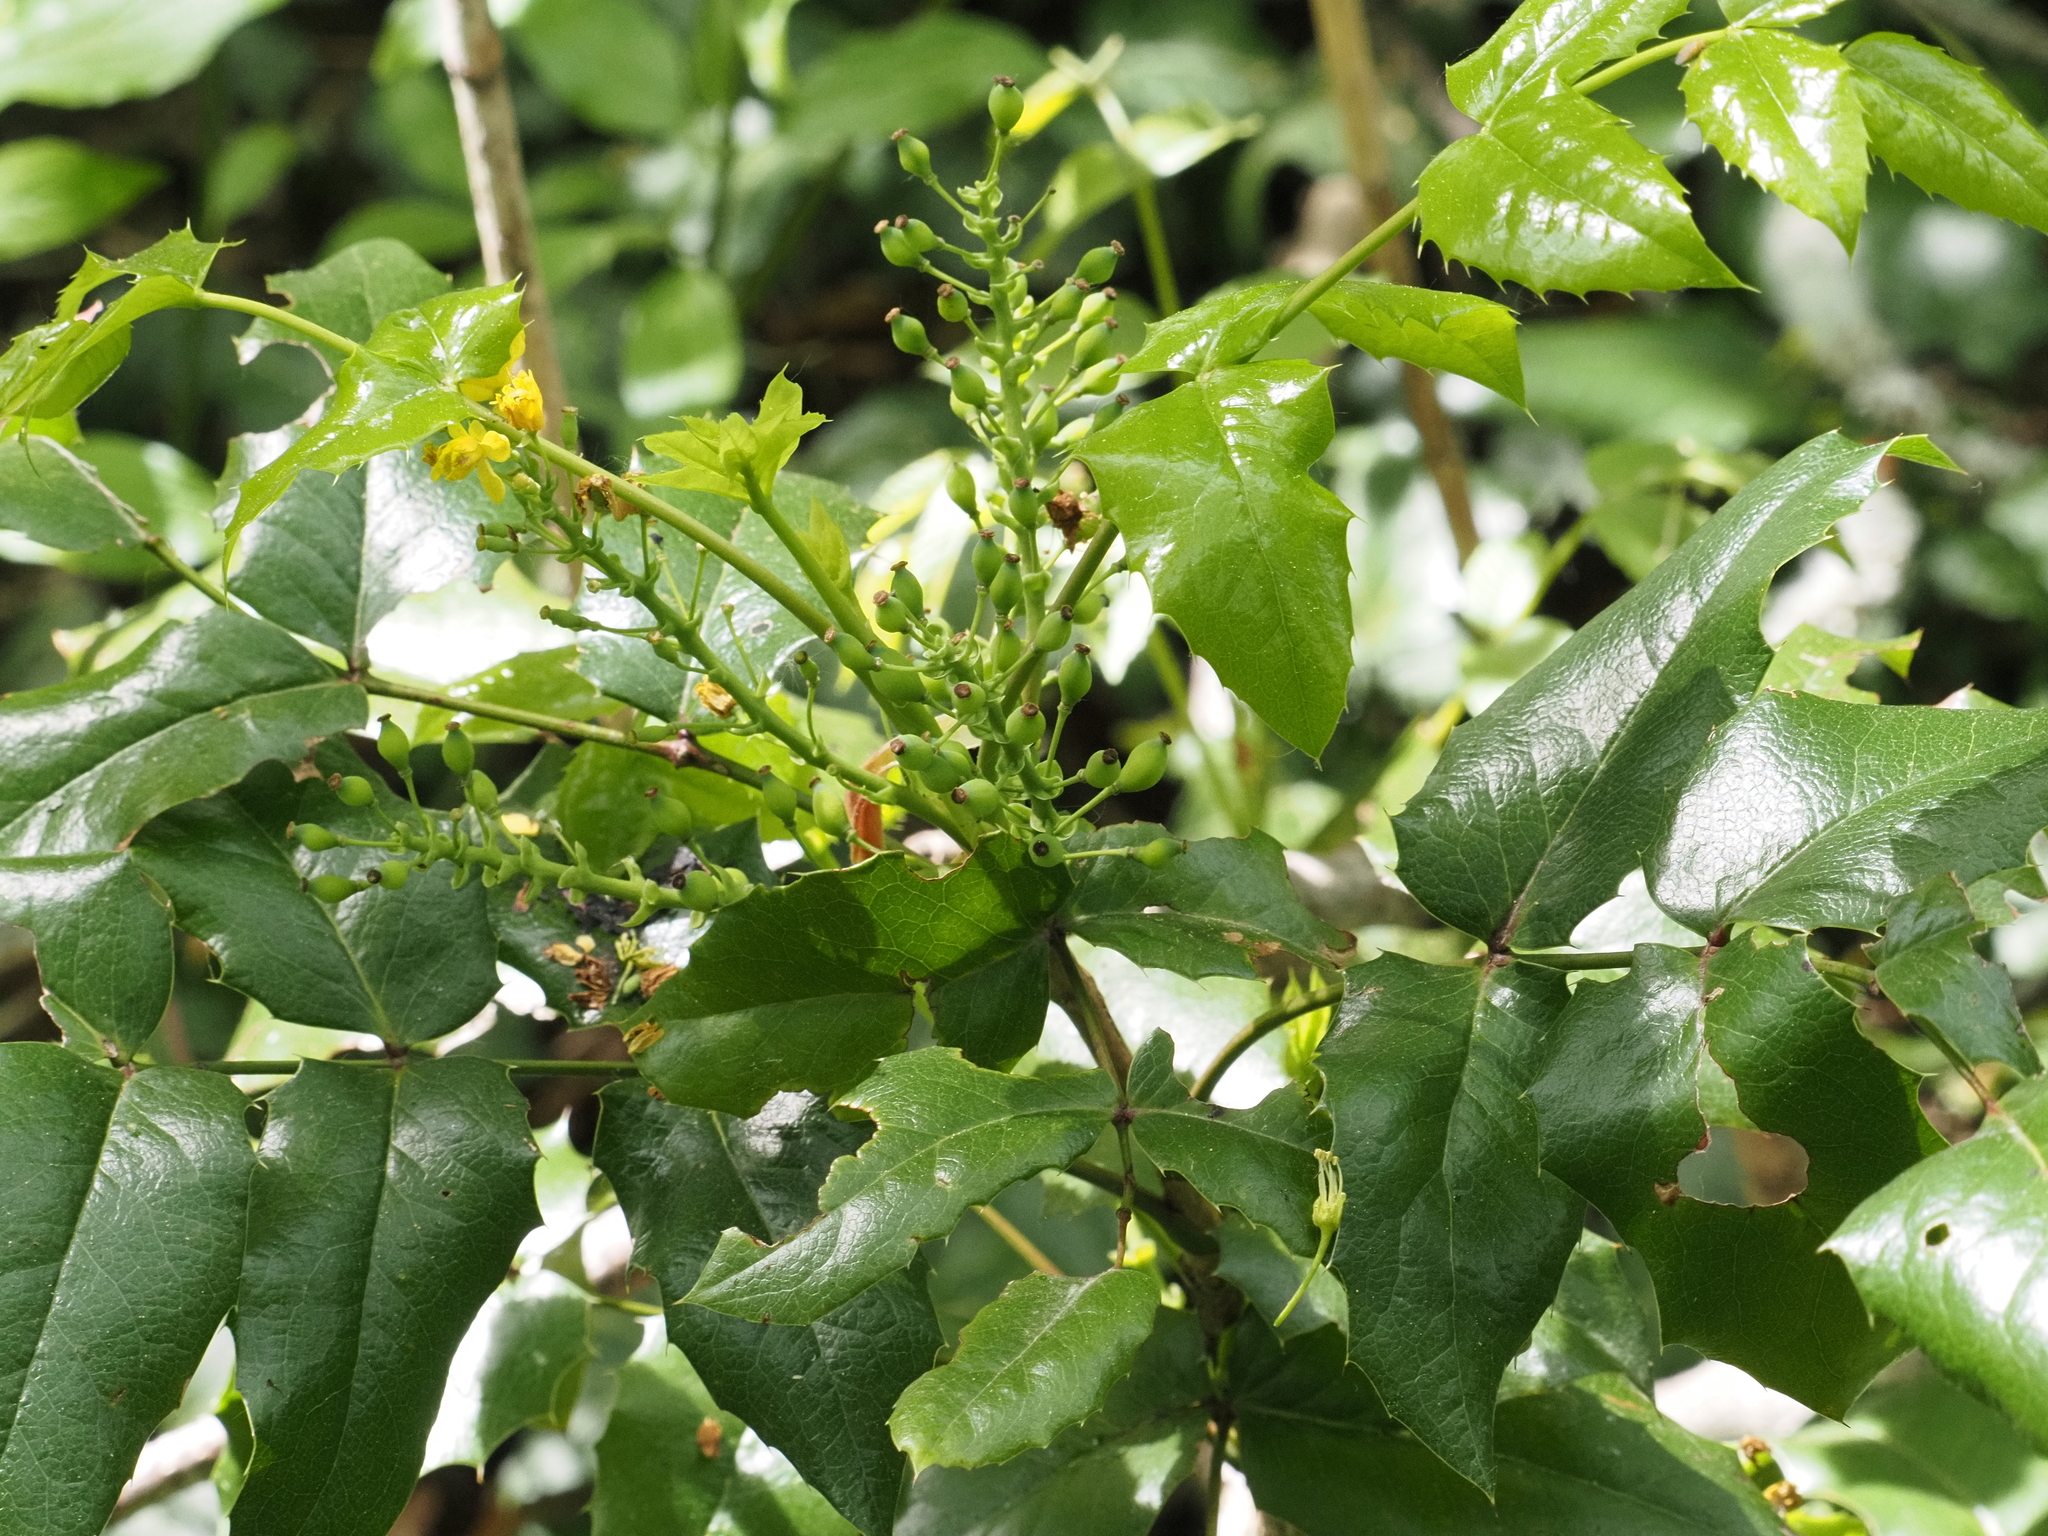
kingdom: Plantae
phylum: Tracheophyta
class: Magnoliopsida
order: Ranunculales
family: Berberidaceae
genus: Mahonia
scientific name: Mahonia aquifolium
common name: Oregon-grape
